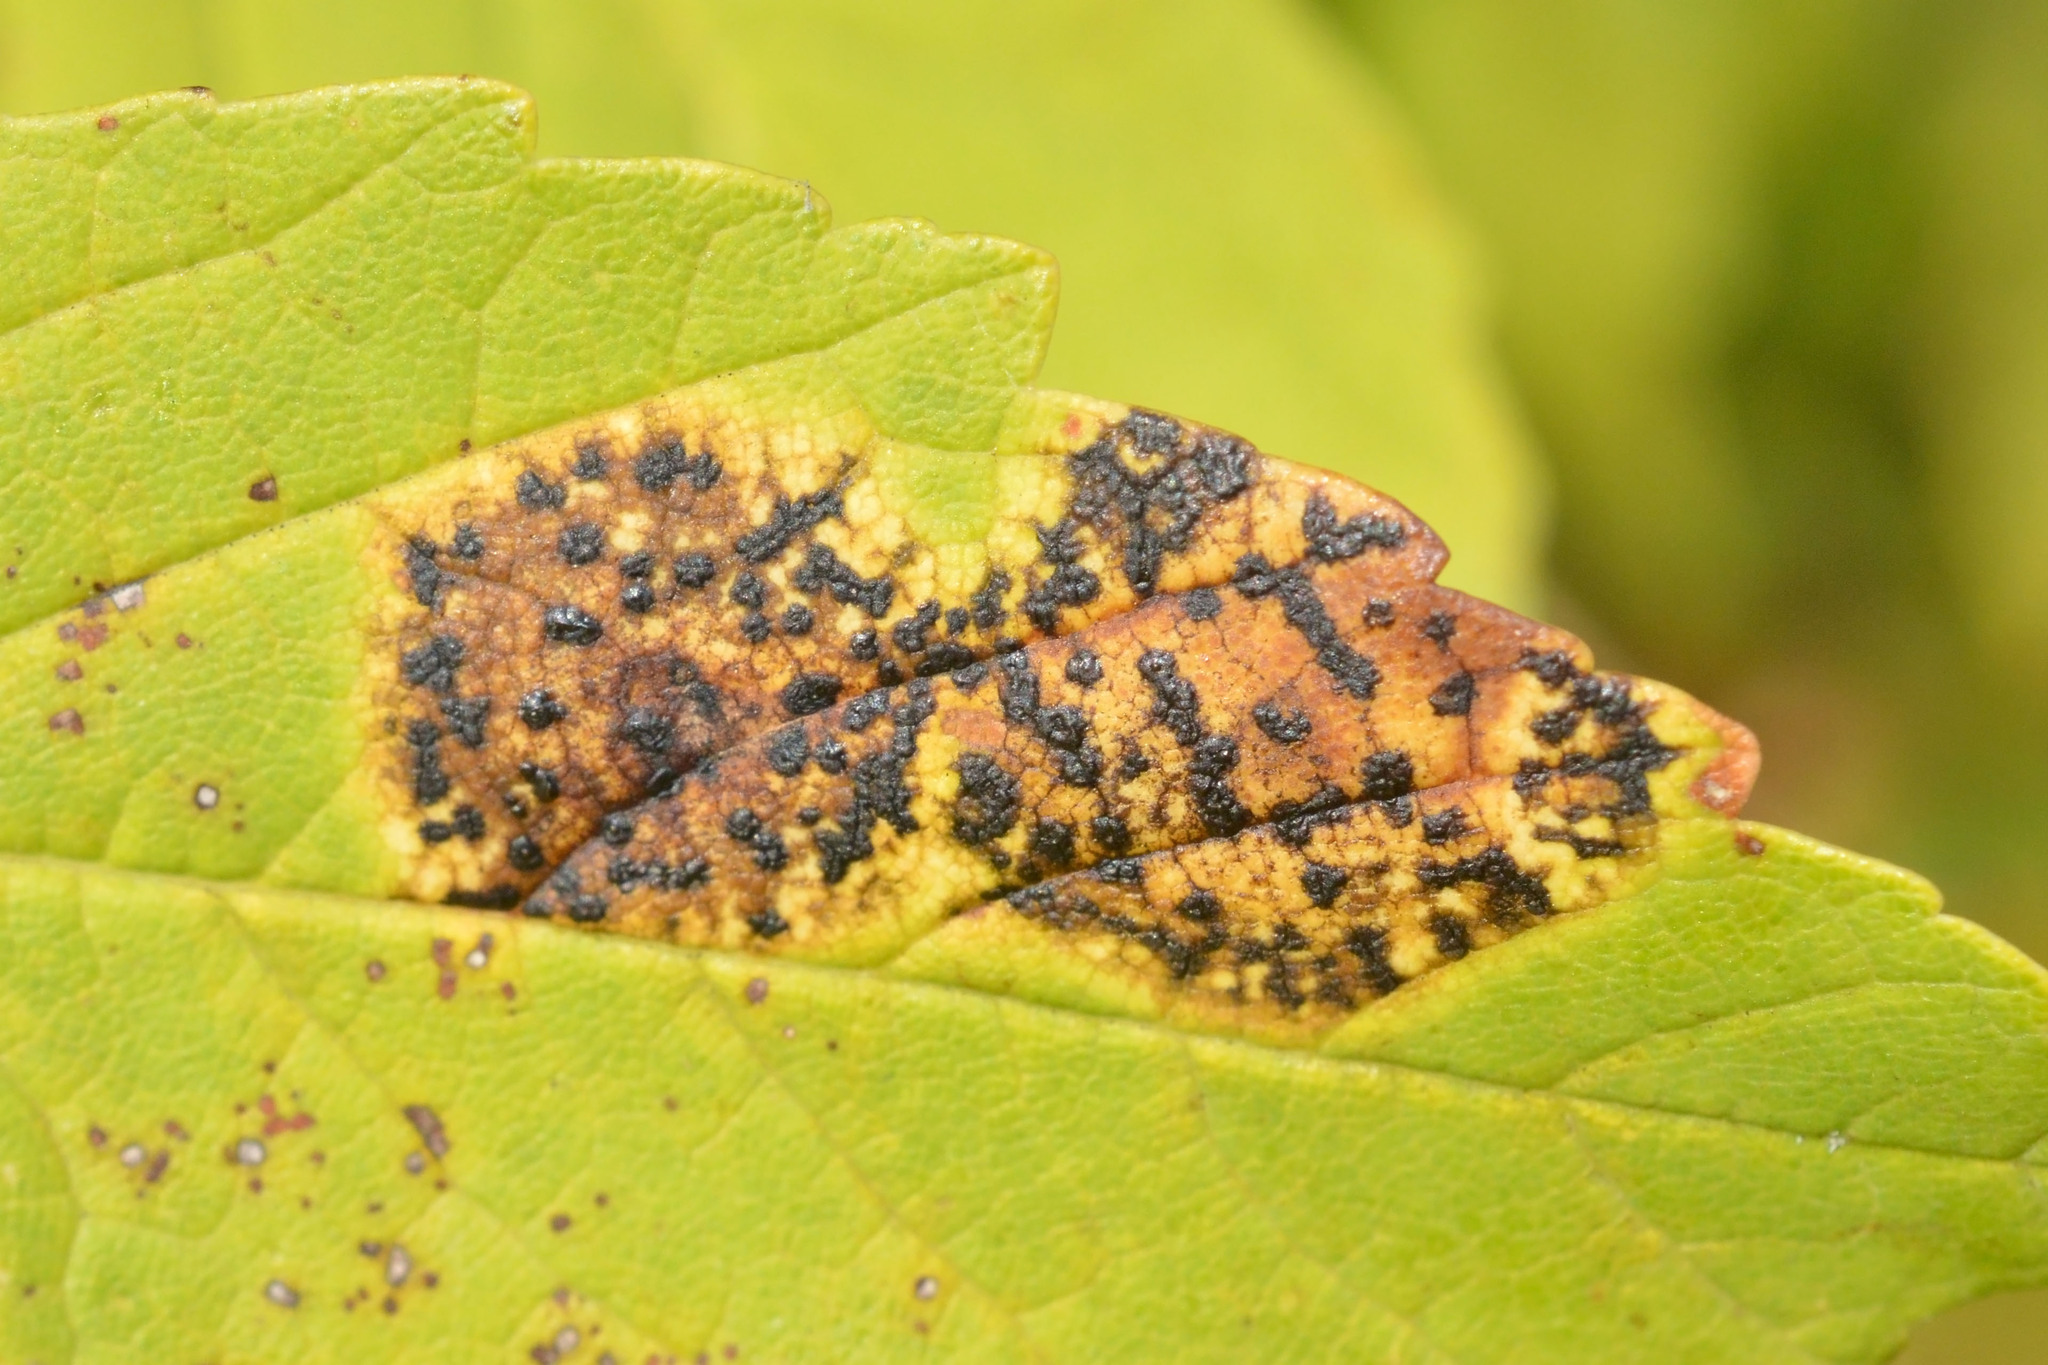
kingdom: Fungi
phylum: Ascomycota
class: Leotiomycetes
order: Rhytismatales
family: Rhytismataceae
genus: Rhytisma
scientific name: Rhytisma acerinum
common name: European tar spot
